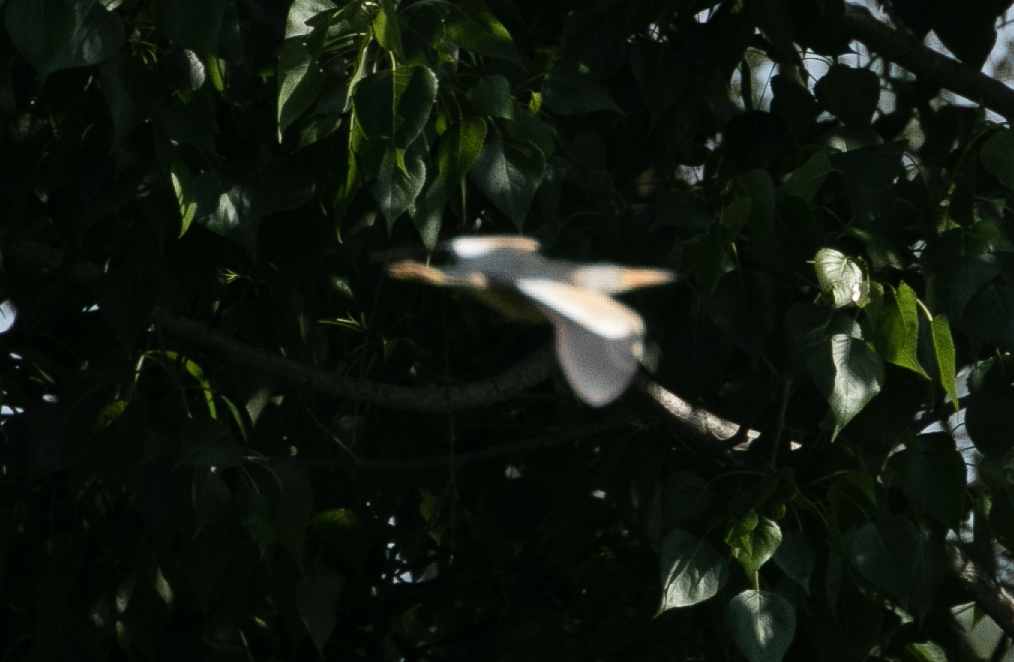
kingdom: Animalia
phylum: Chordata
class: Aves
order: Pelecaniformes
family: Ardeidae
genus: Ixobrychus
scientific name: Ixobrychus minutus
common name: Little bittern
